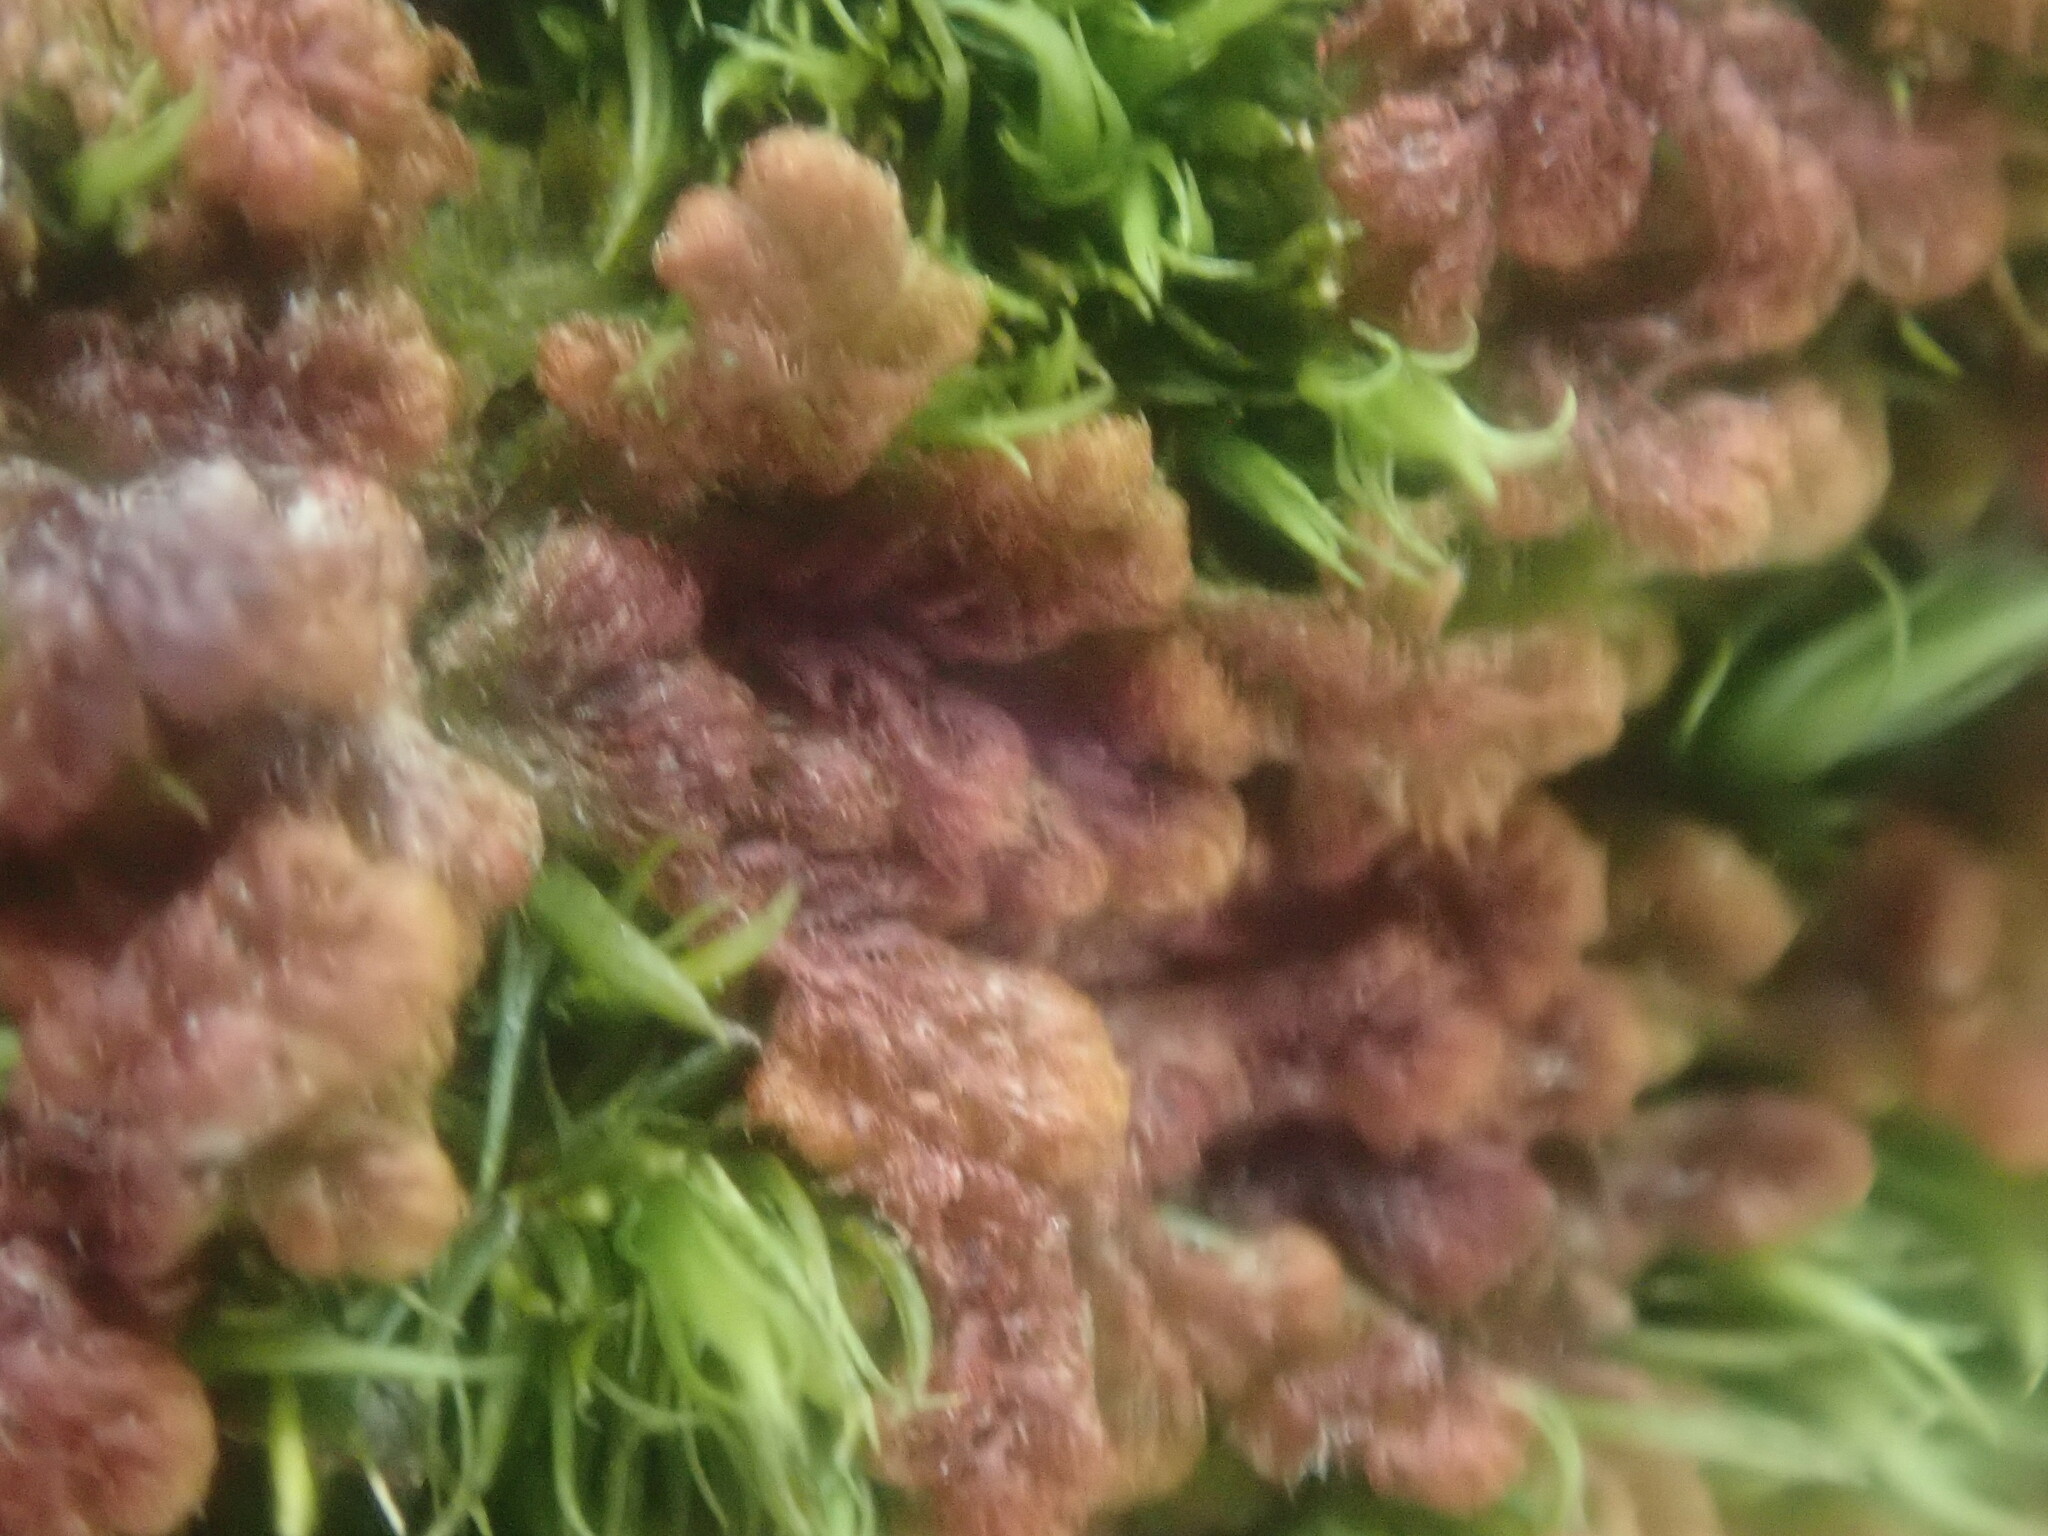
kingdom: Plantae
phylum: Marchantiophyta
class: Jungermanniopsida
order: Ptilidiales
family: Ptilidiaceae
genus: Ptilidium
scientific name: Ptilidium pulcherrimum
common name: Tree fringewort
